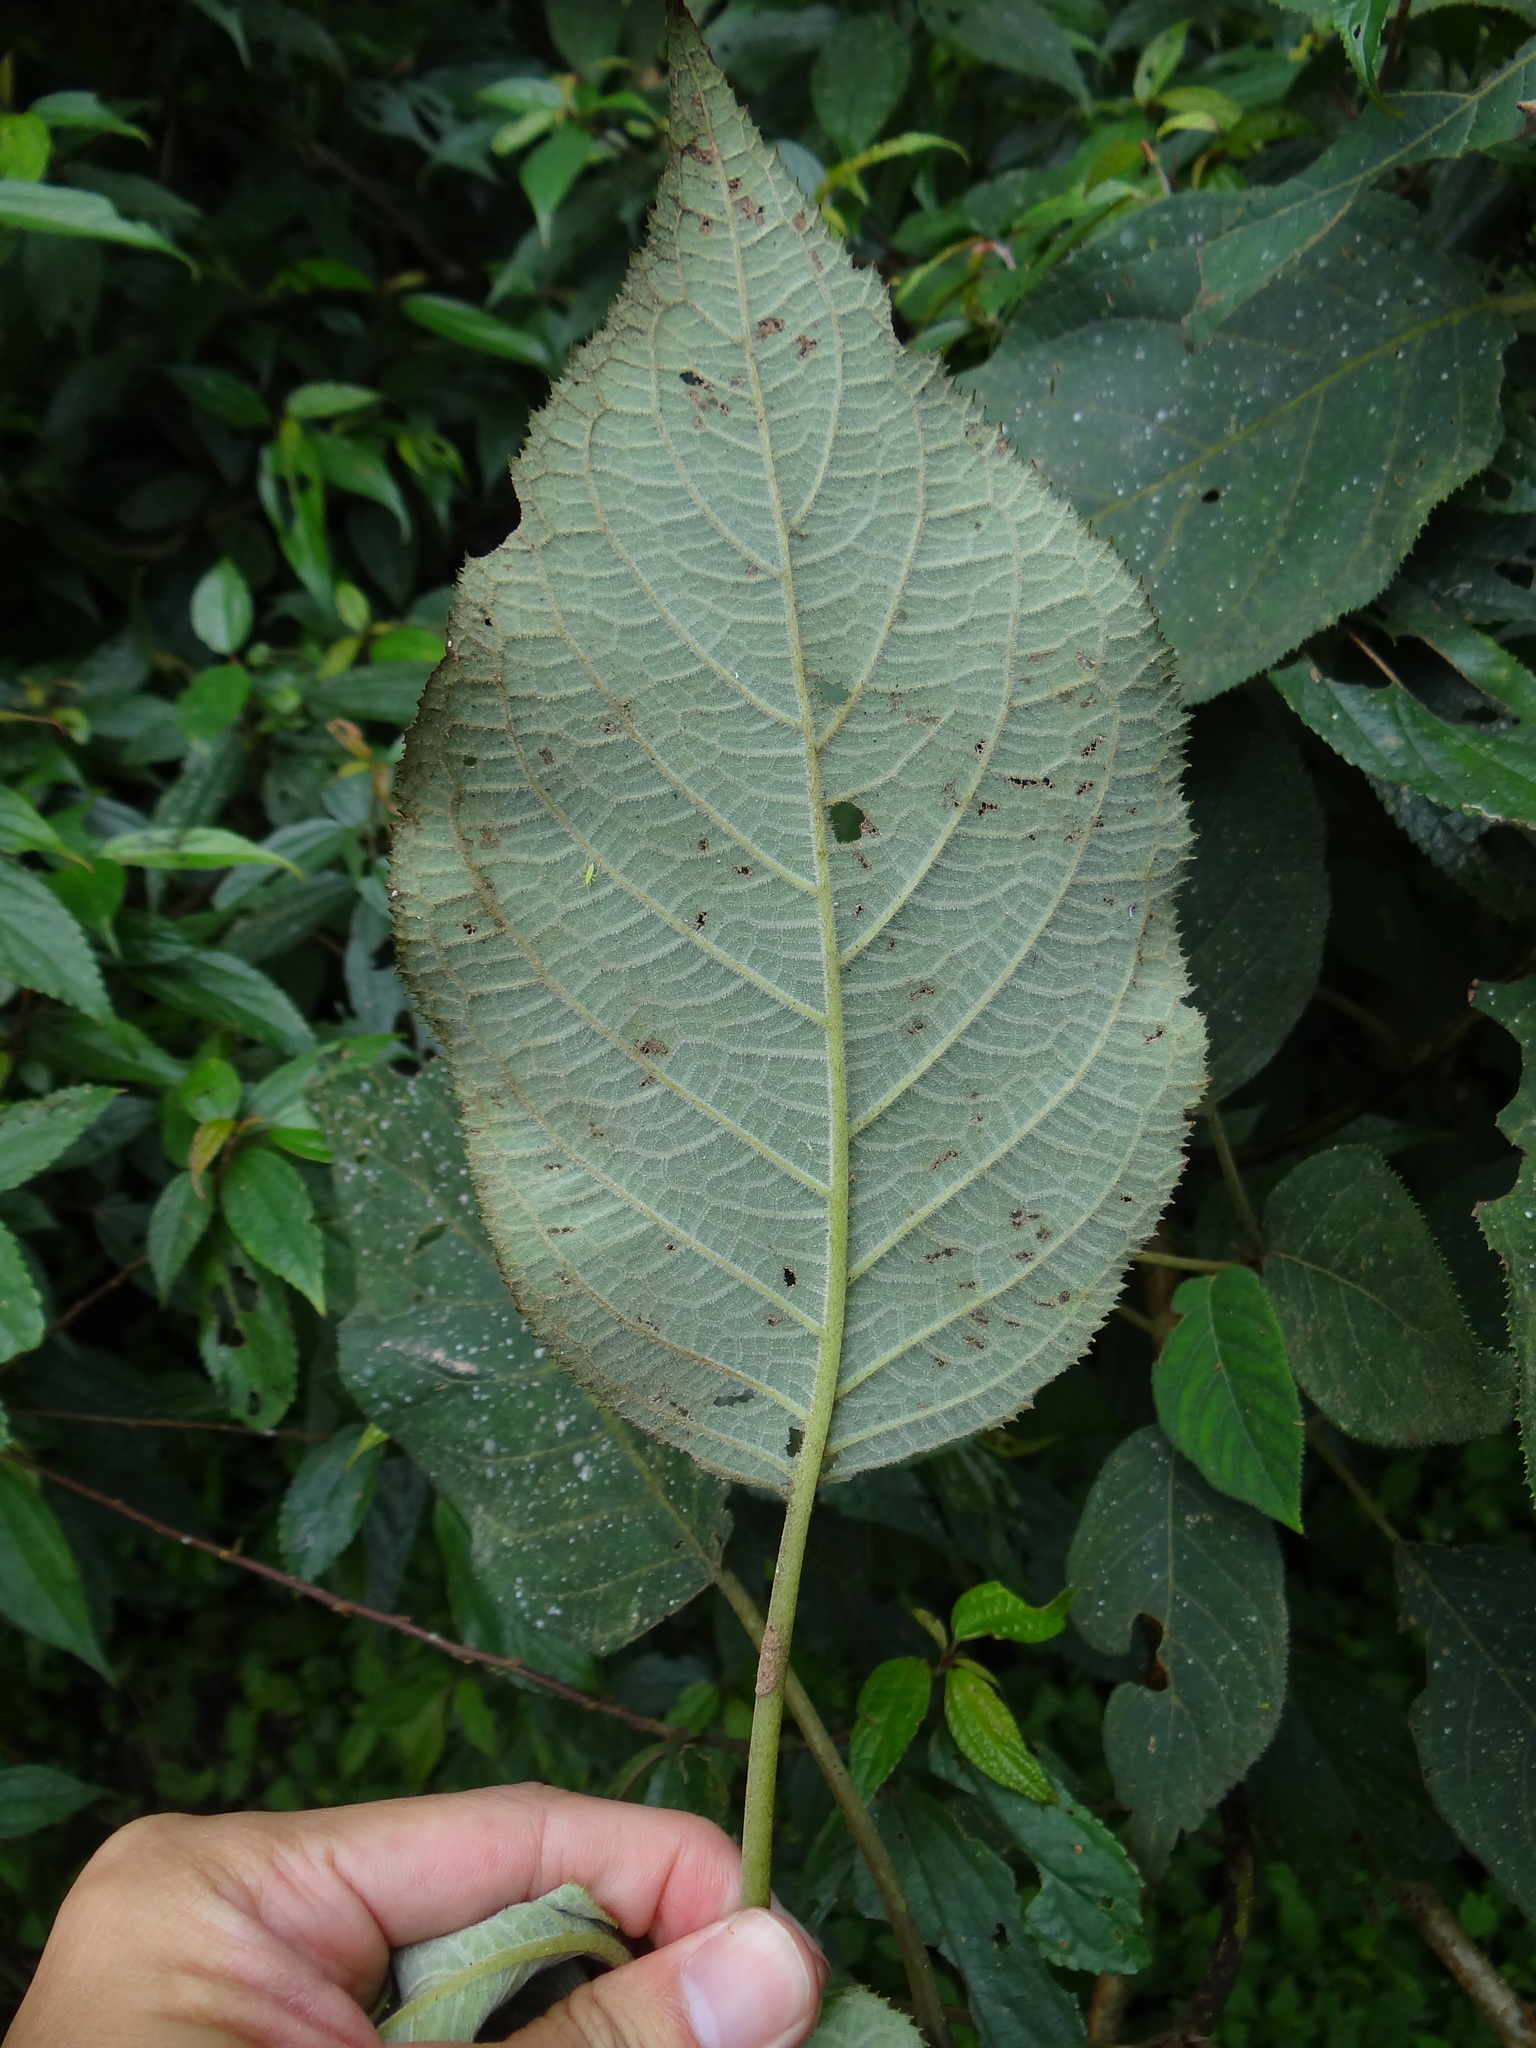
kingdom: Plantae
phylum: Tracheophyta
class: Magnoliopsida
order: Cornales
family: Hydrangeaceae
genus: Hydrangea
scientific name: Hydrangea aspera
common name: Rough-leaf hydrangea
